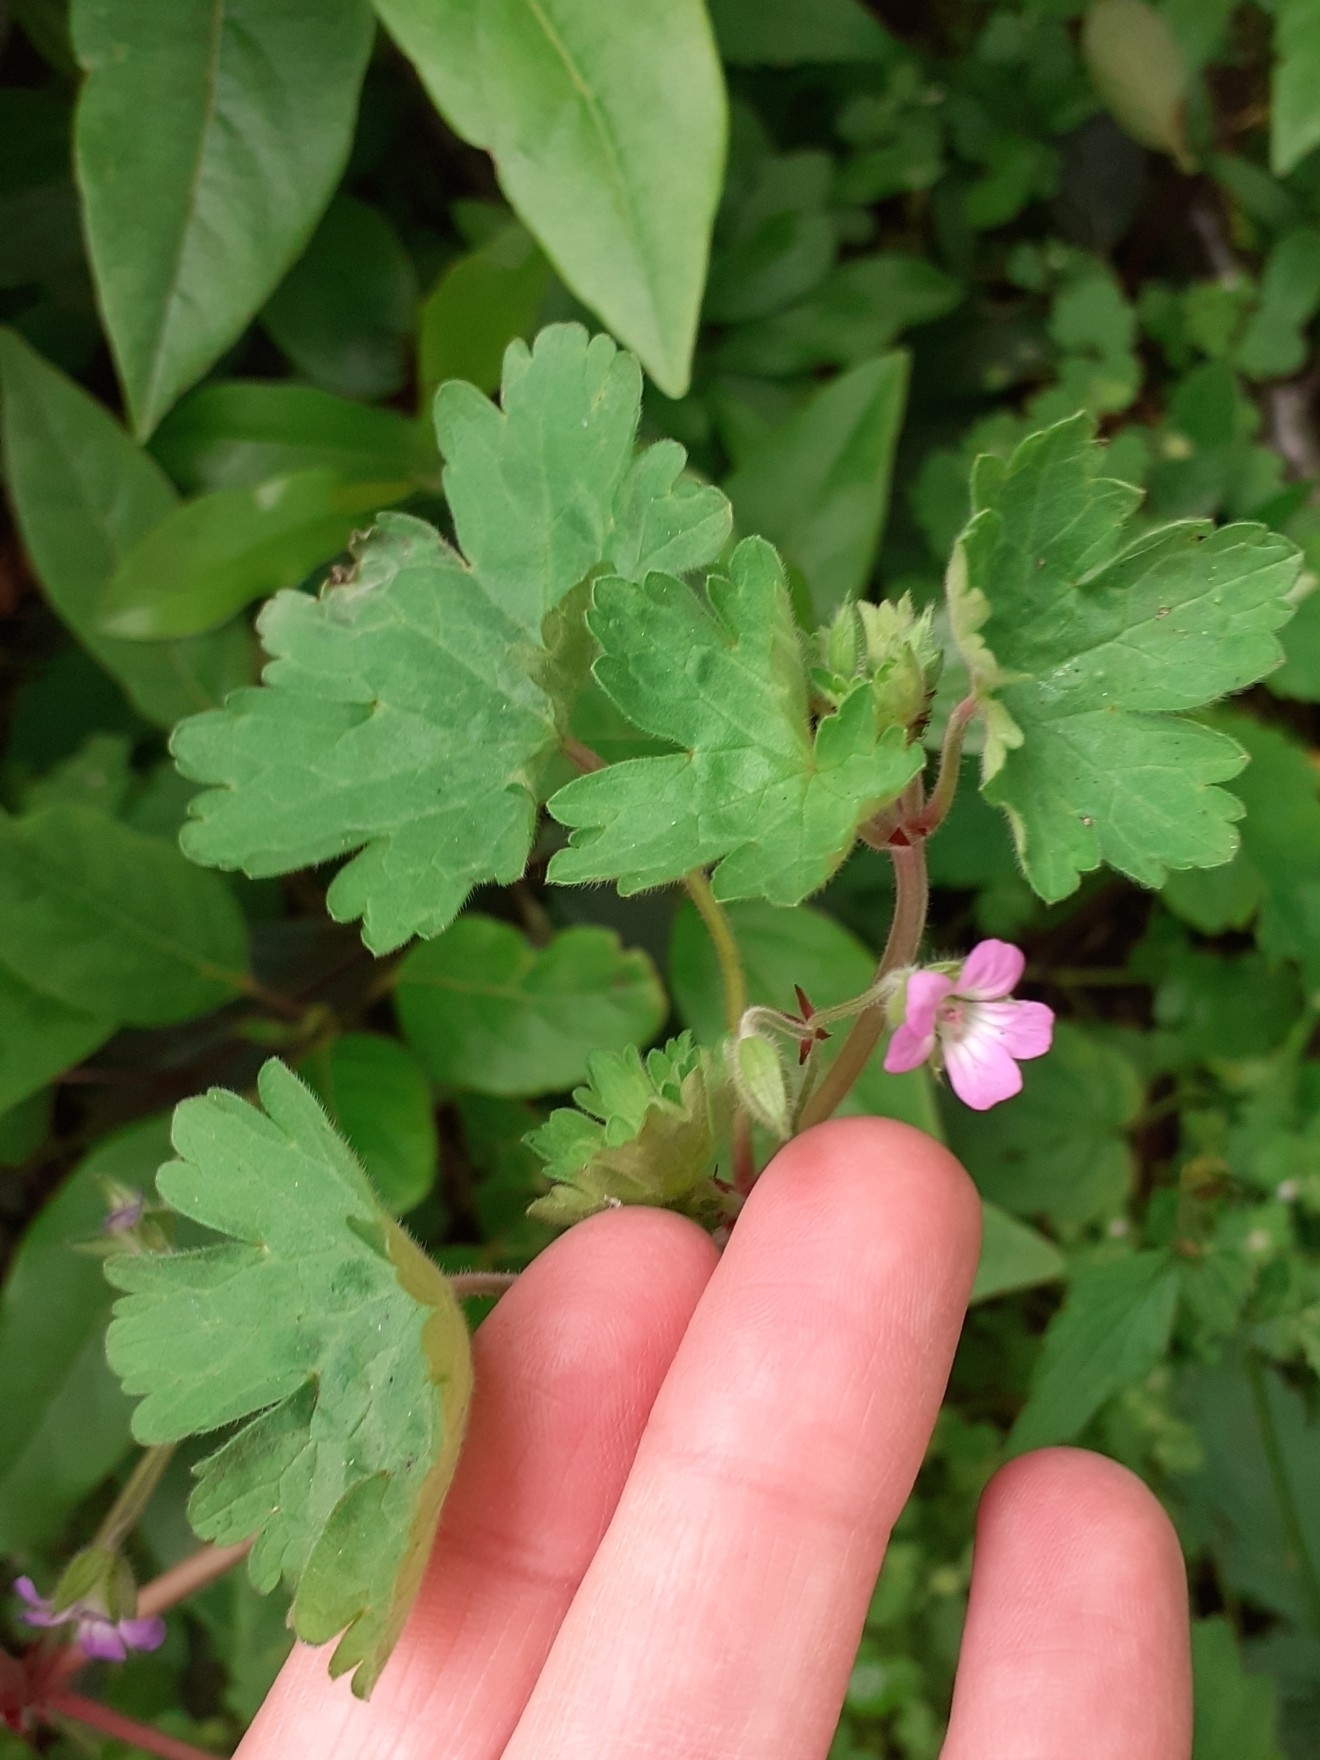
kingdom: Plantae
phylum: Tracheophyta
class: Magnoliopsida
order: Geraniales
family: Geraniaceae
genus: Geranium
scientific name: Geranium rotundifolium
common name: Round-leaved crane's-bill
